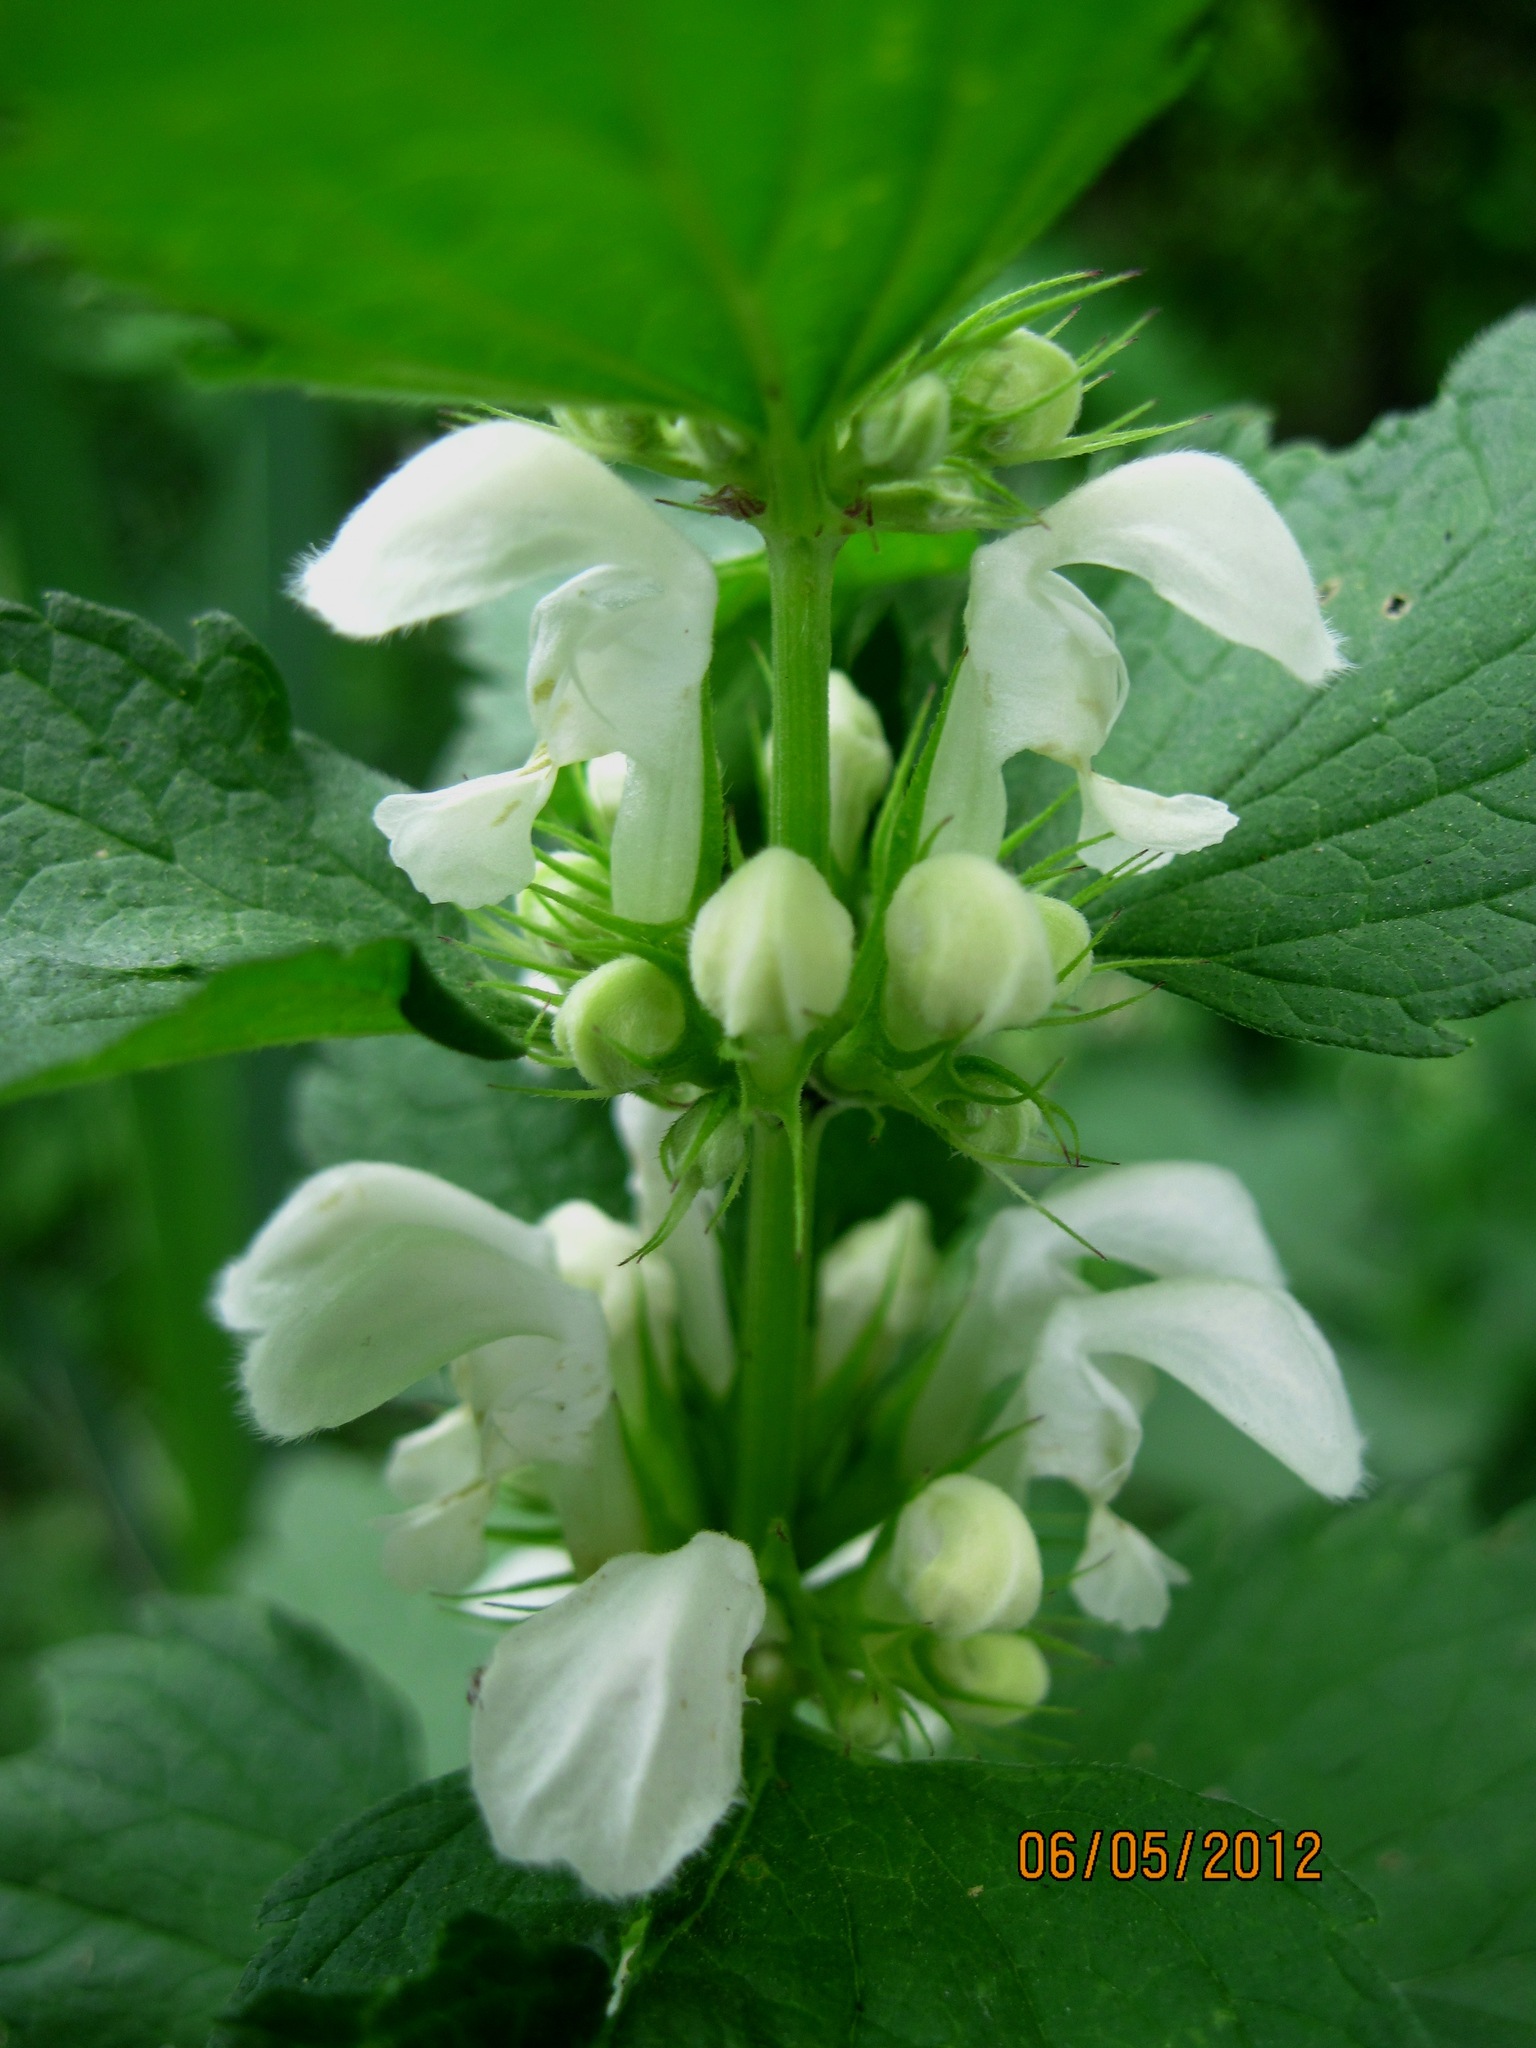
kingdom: Plantae
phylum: Tracheophyta
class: Magnoliopsida
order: Lamiales
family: Lamiaceae
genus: Lamium
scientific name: Lamium album
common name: White dead-nettle
